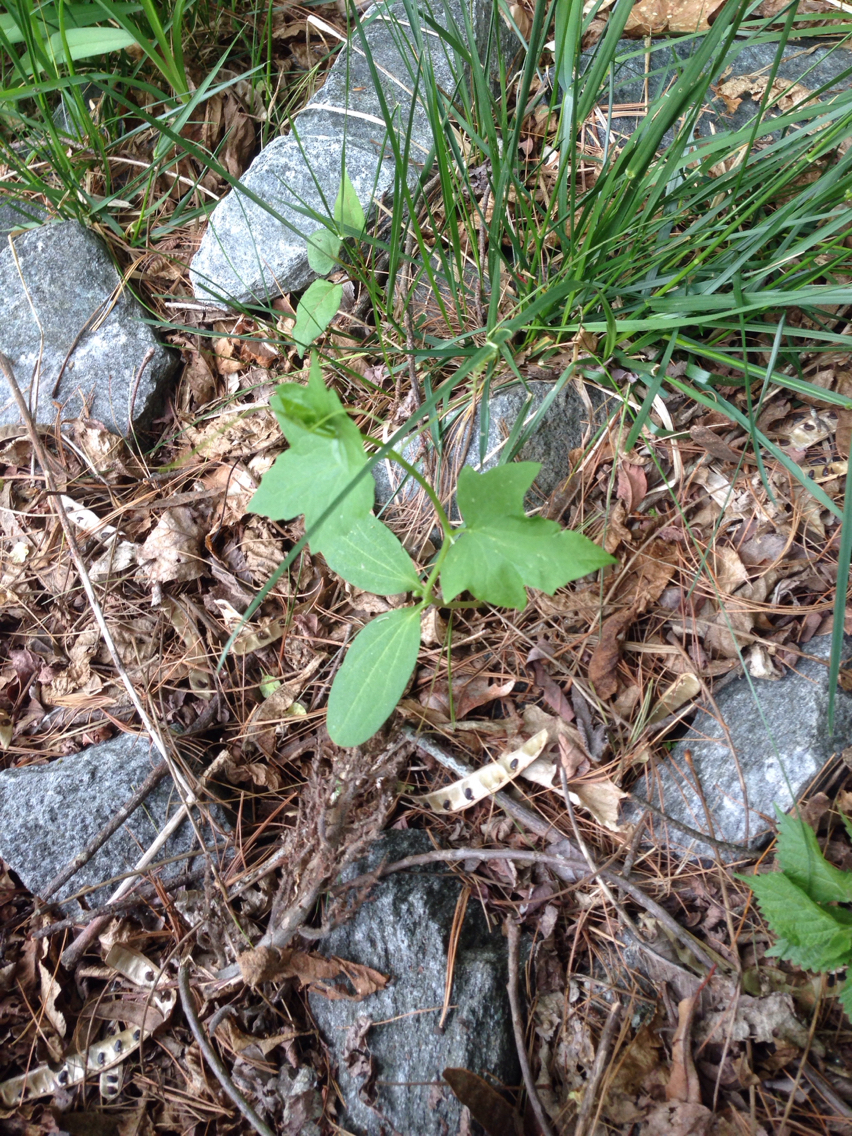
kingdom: Plantae
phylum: Tracheophyta
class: Magnoliopsida
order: Cucurbitales
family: Cucurbitaceae
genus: Echinocystis
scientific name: Echinocystis lobata
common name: Wild cucumber
